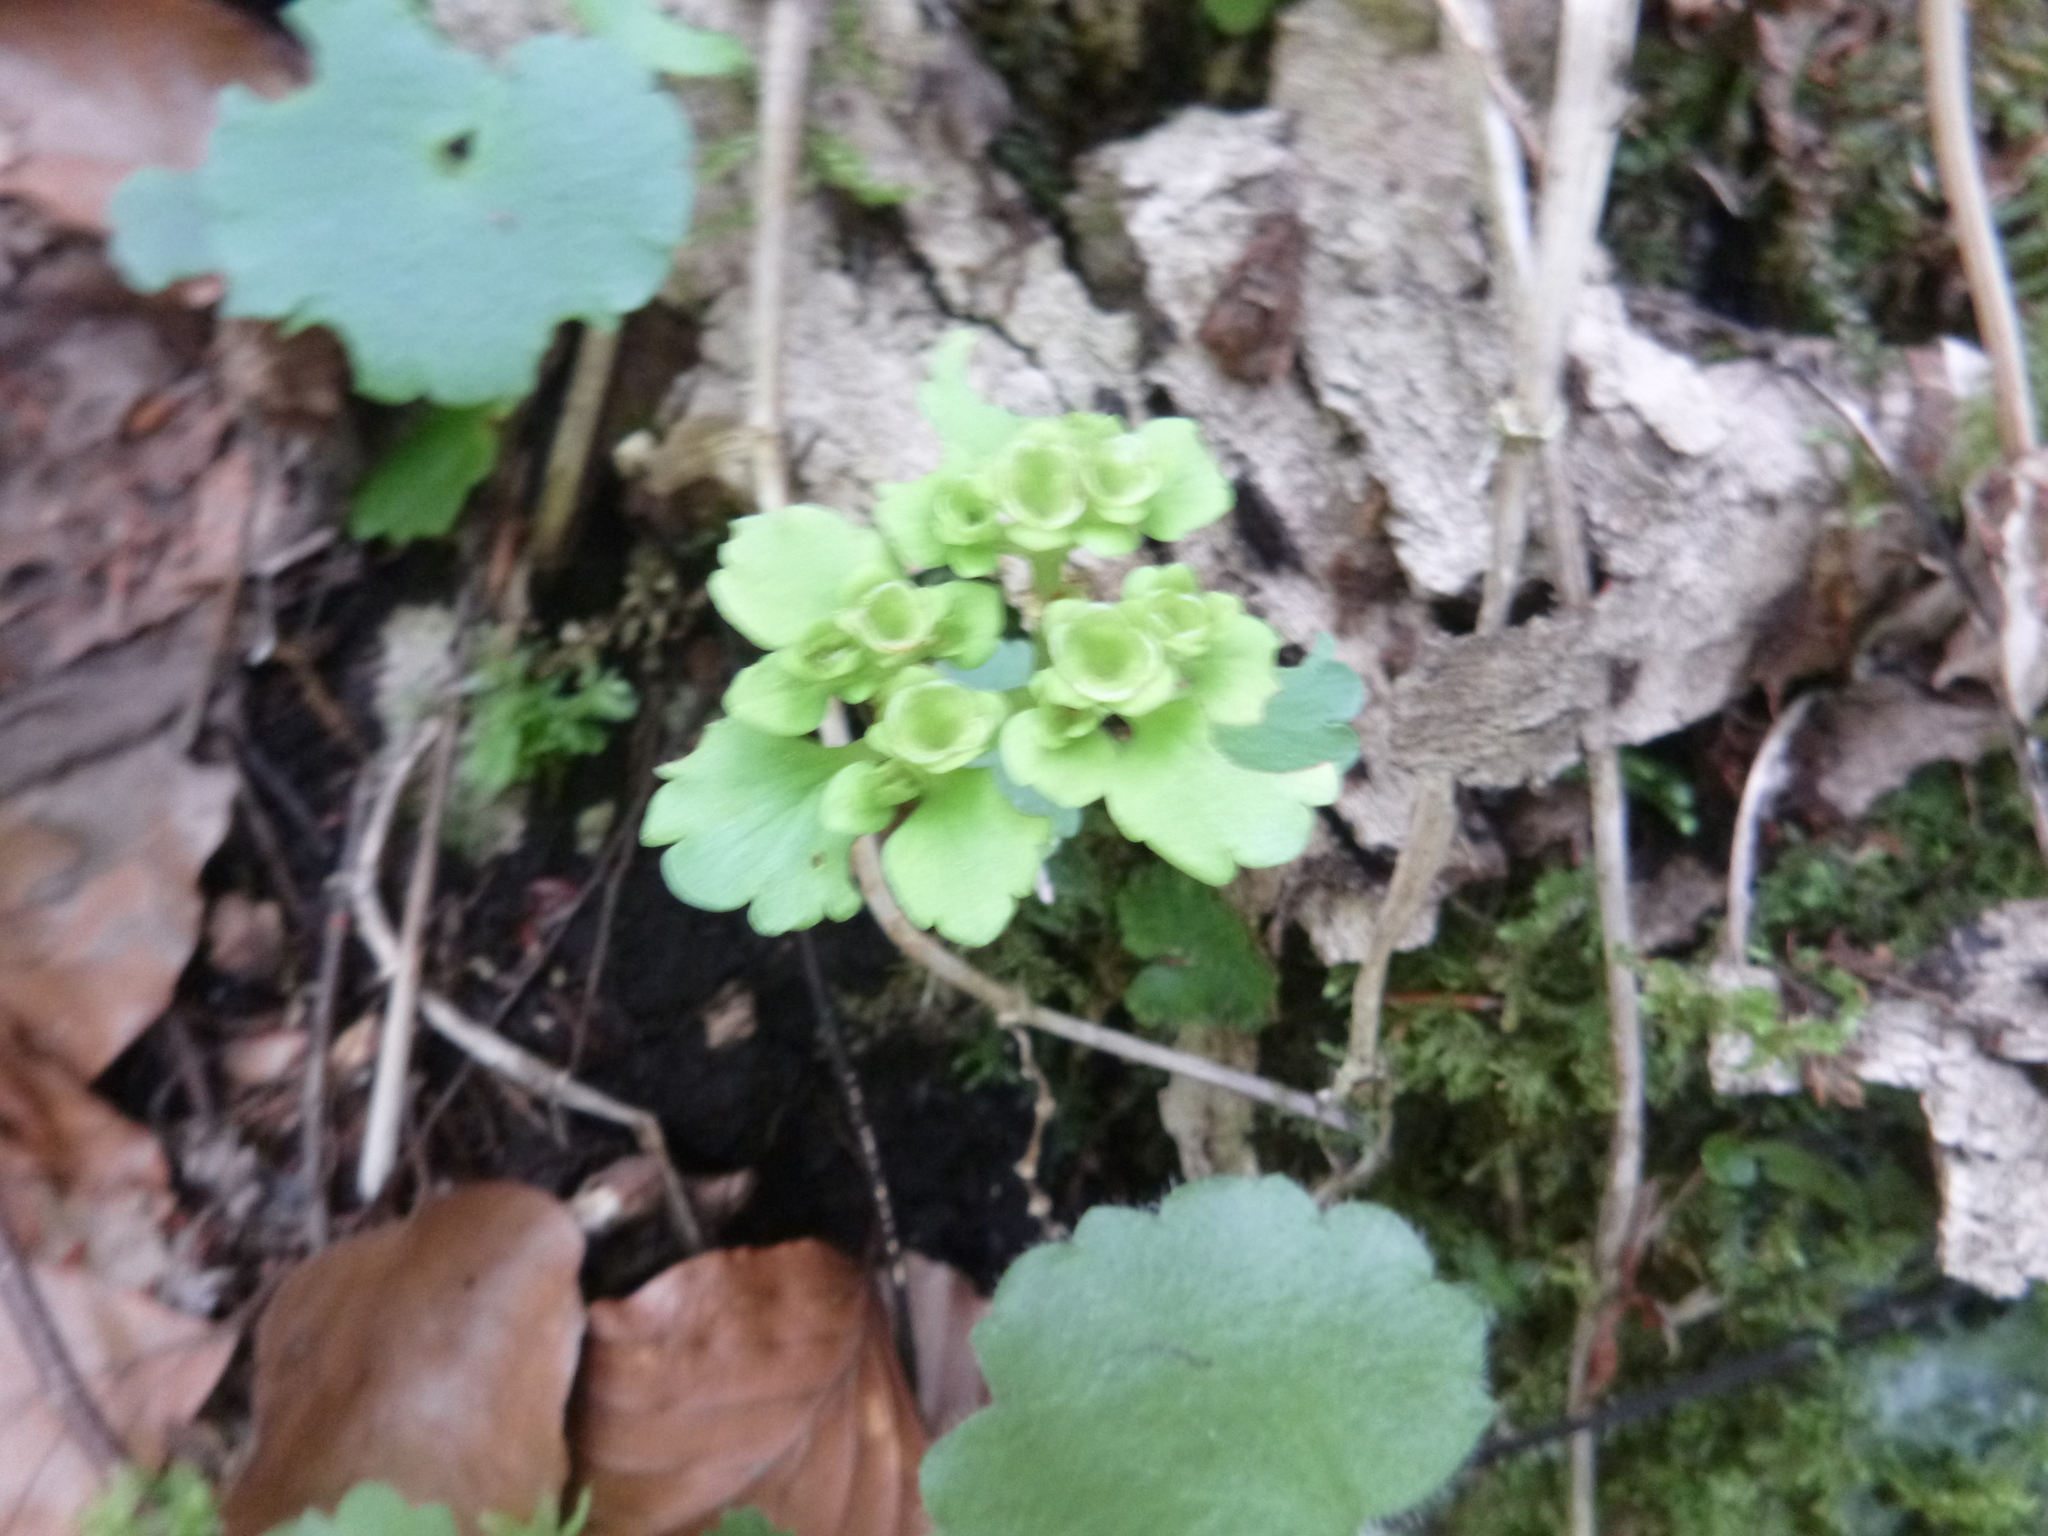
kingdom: Plantae
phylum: Tracheophyta
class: Magnoliopsida
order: Saxifragales
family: Saxifragaceae
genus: Chrysosplenium
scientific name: Chrysosplenium alternifolium
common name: Alternate-leaved golden-saxifrage
